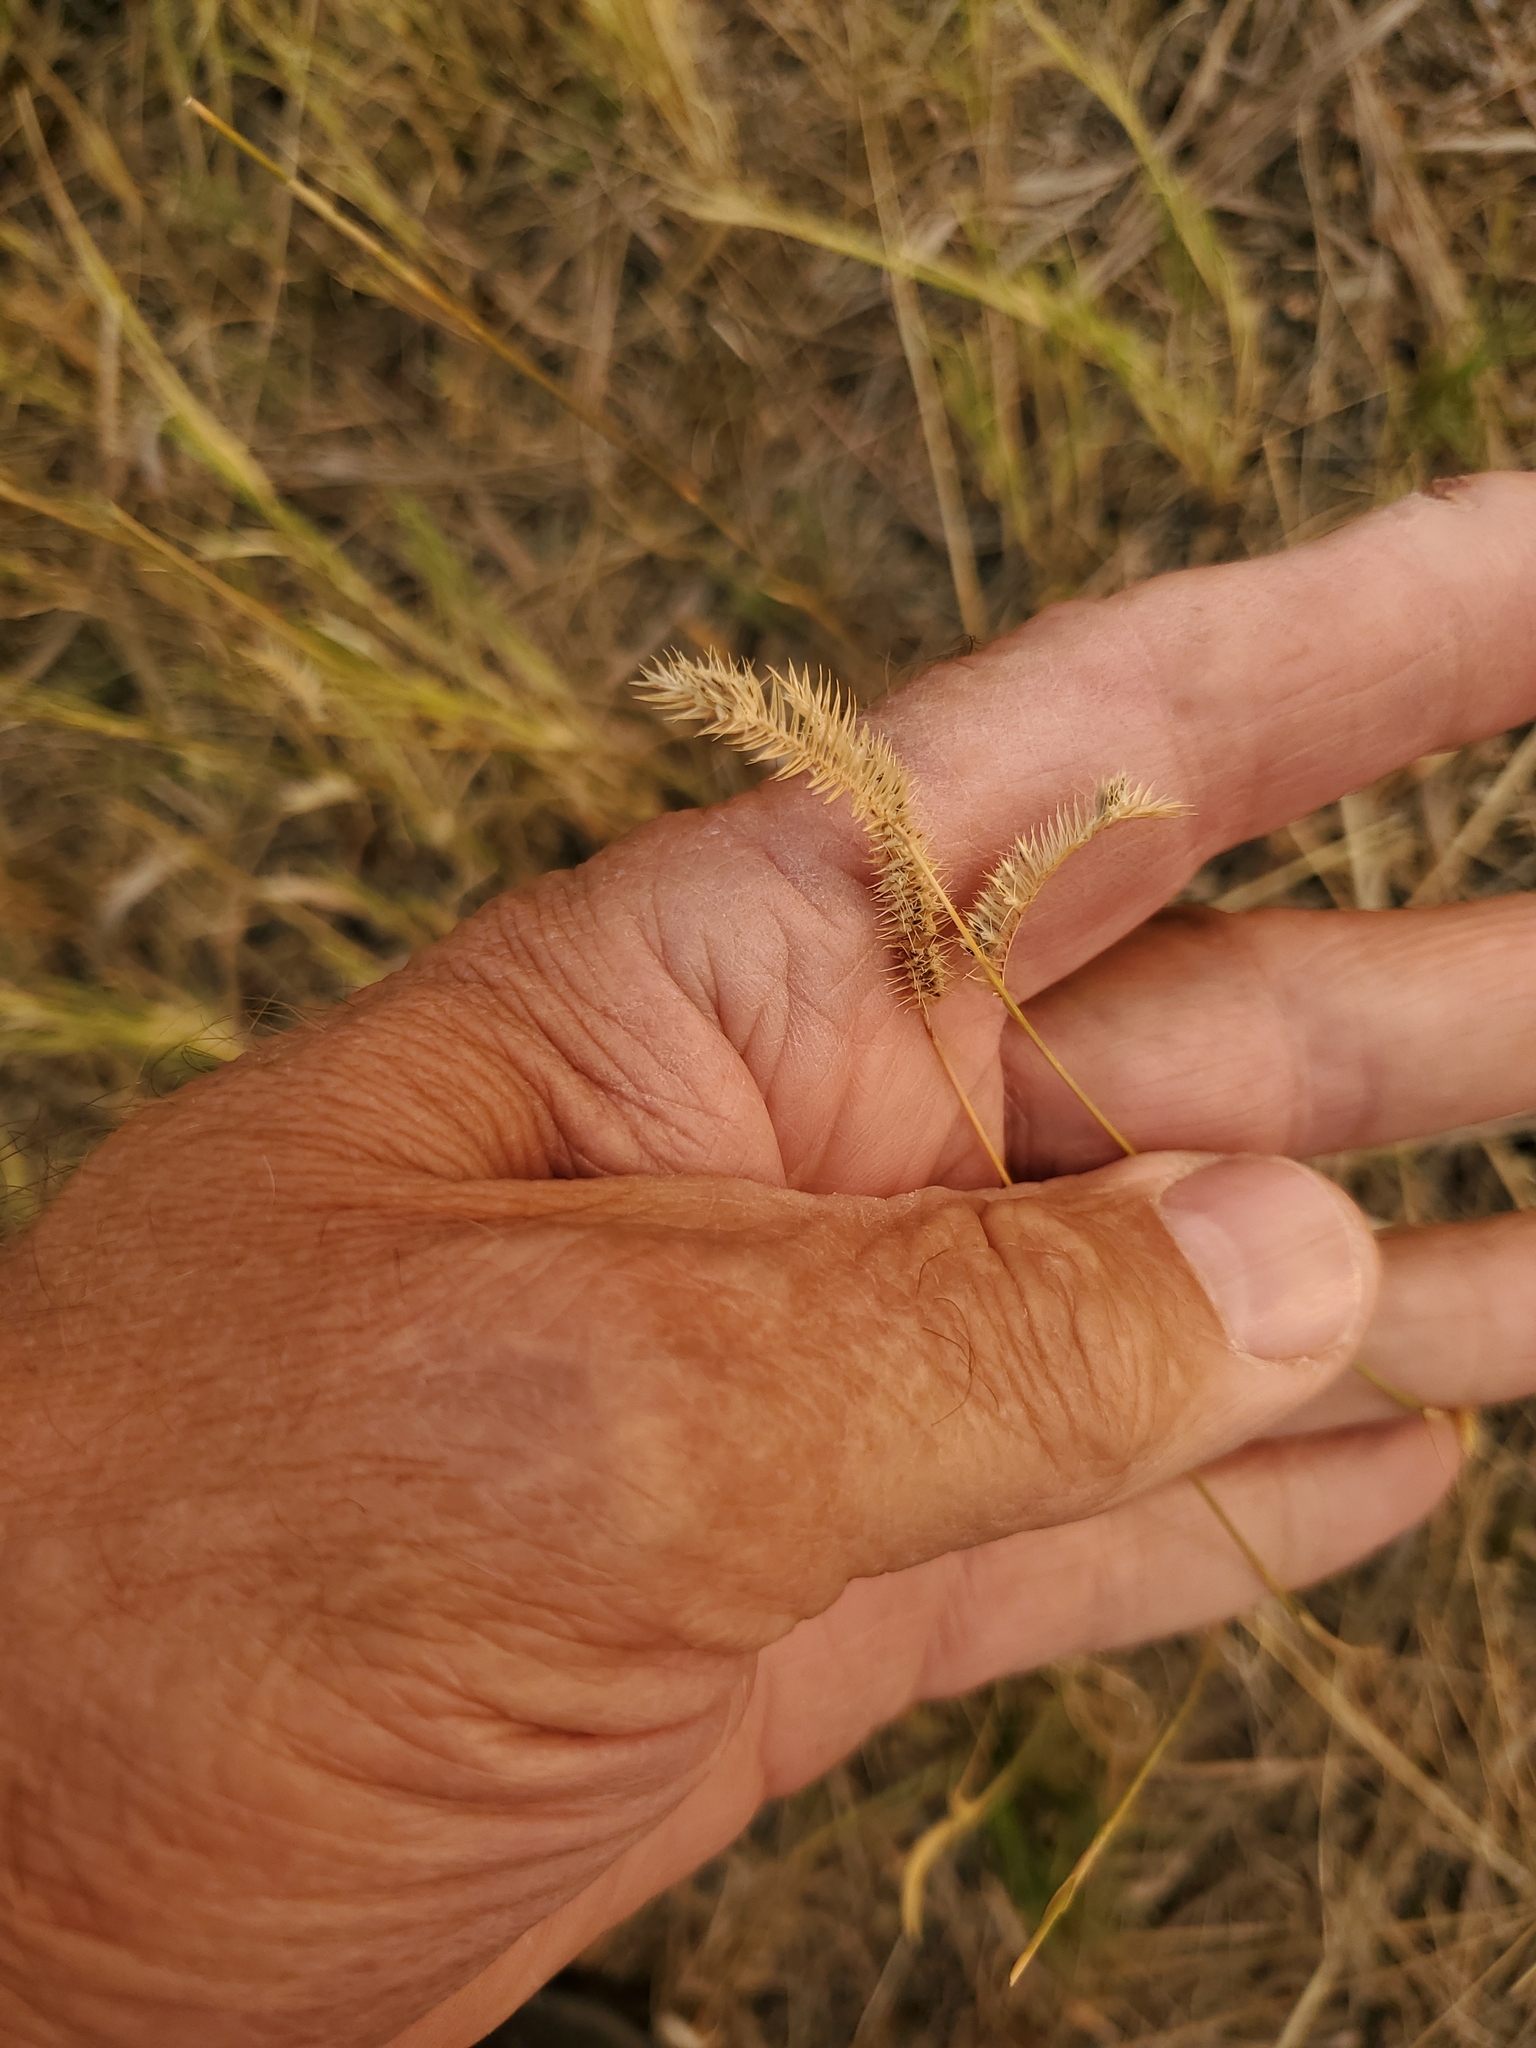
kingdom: Plantae
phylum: Tracheophyta
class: Liliopsida
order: Poales
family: Poaceae
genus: Bouteloua
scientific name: Bouteloua gracilis
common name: Blue grama
